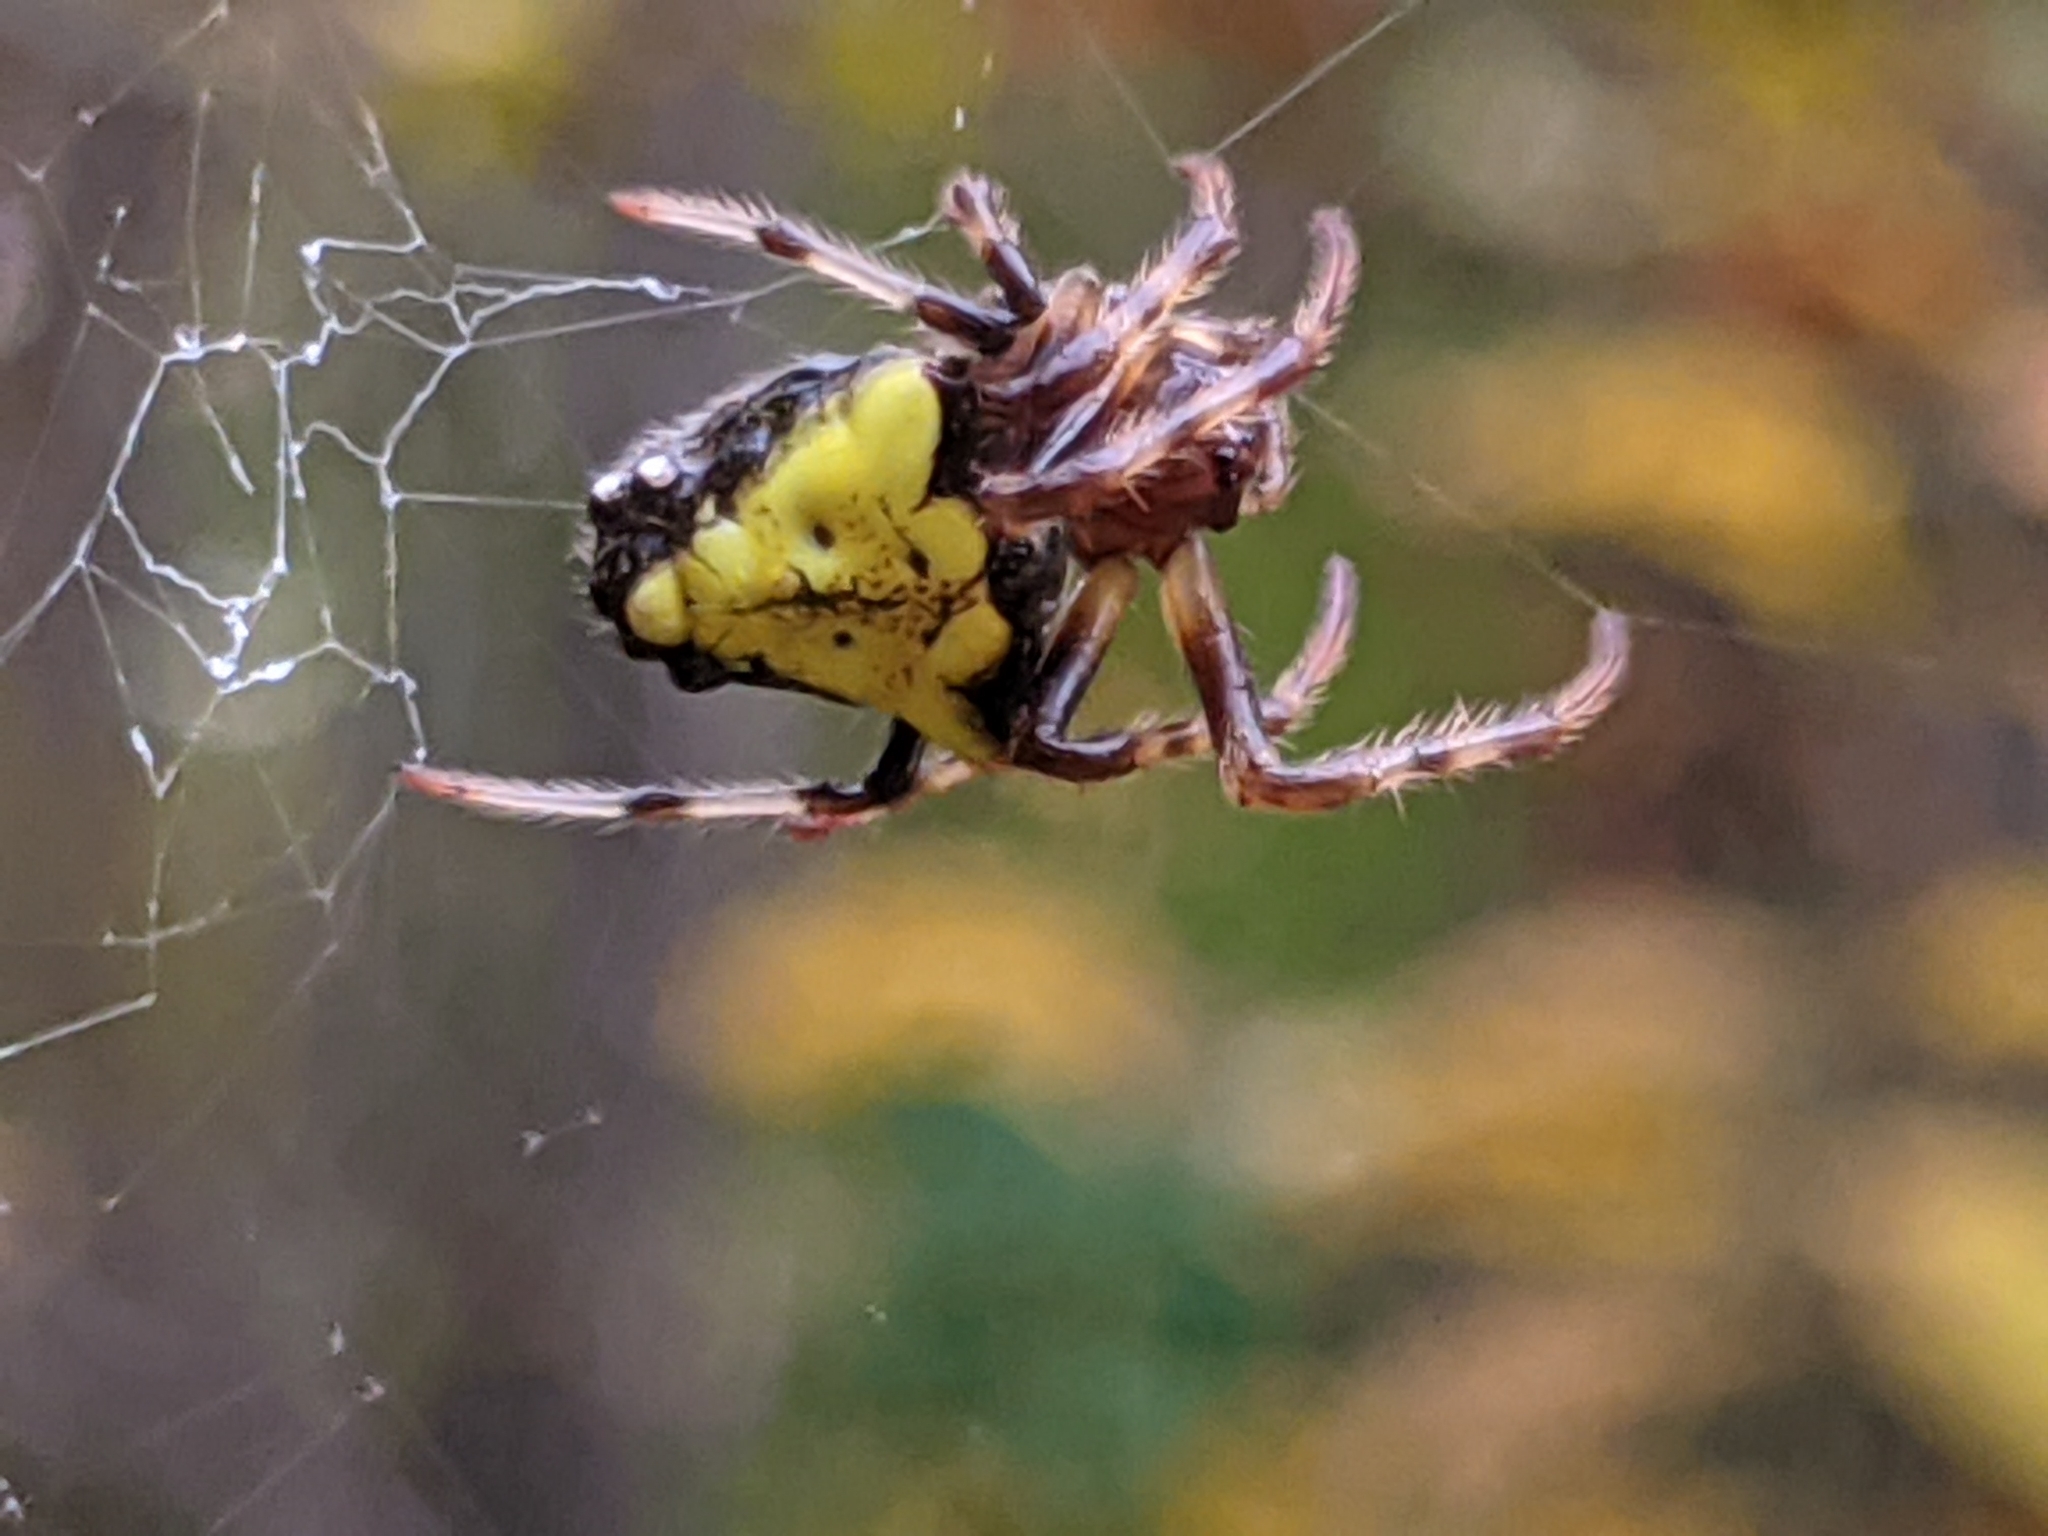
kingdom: Animalia
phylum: Arthropoda
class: Arachnida
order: Araneae
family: Araneidae
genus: Verrucosa
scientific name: Verrucosa arenata
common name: Orb weavers
